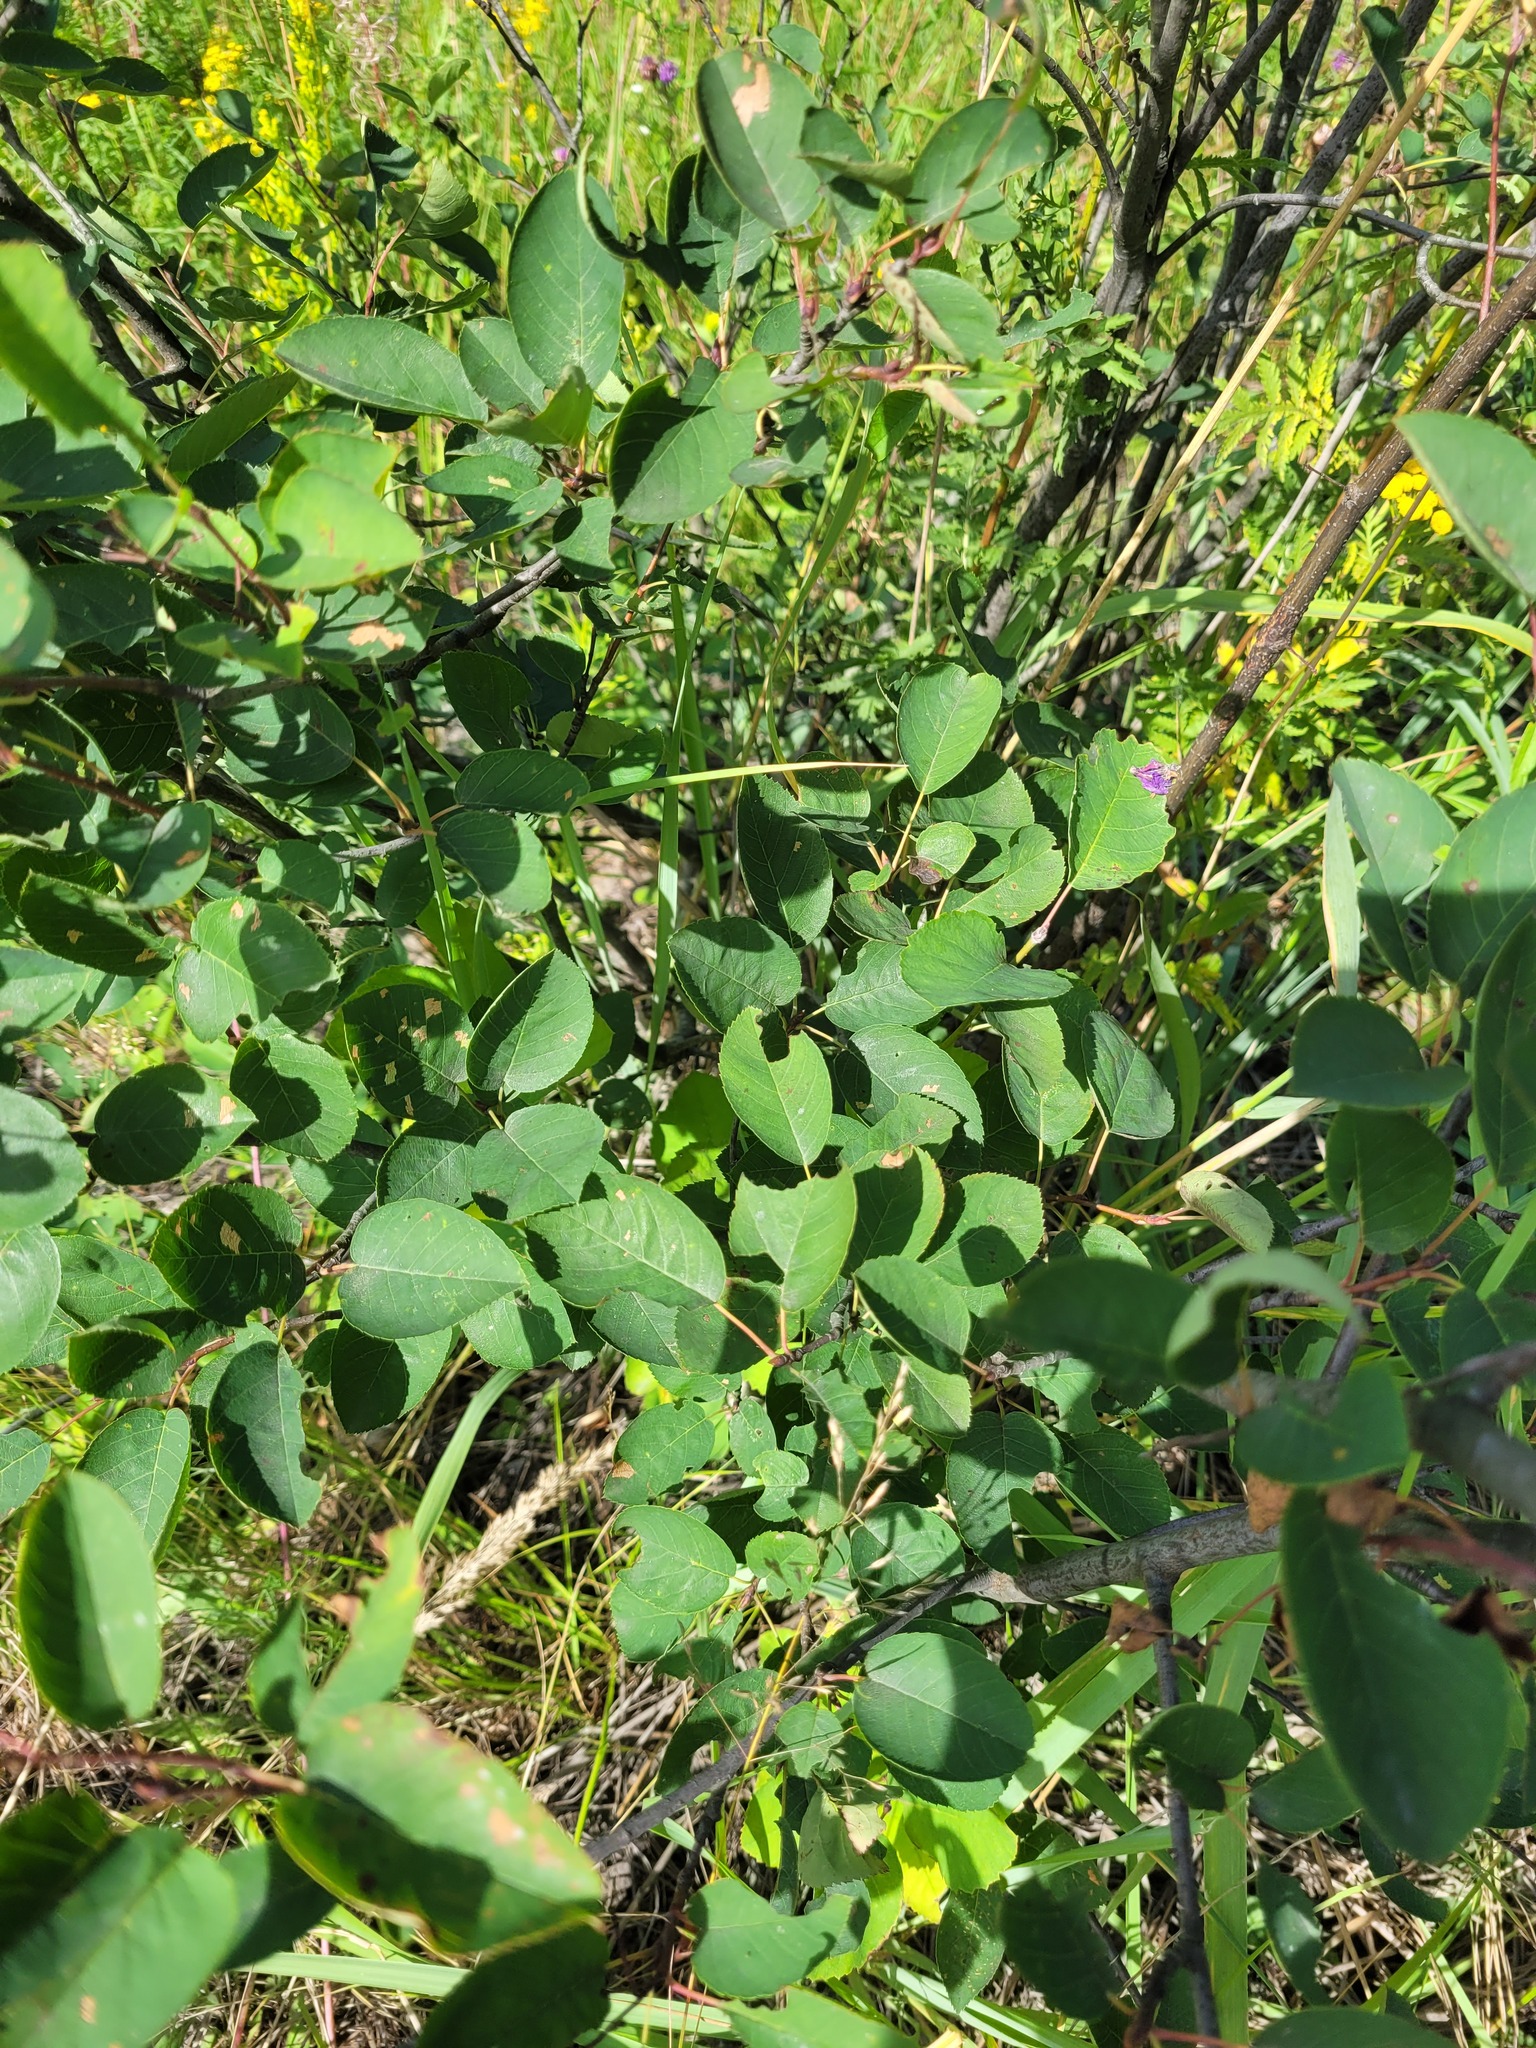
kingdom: Plantae
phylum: Tracheophyta
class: Magnoliopsida
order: Rosales
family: Rosaceae
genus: Amelanchier
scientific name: Amelanchier
